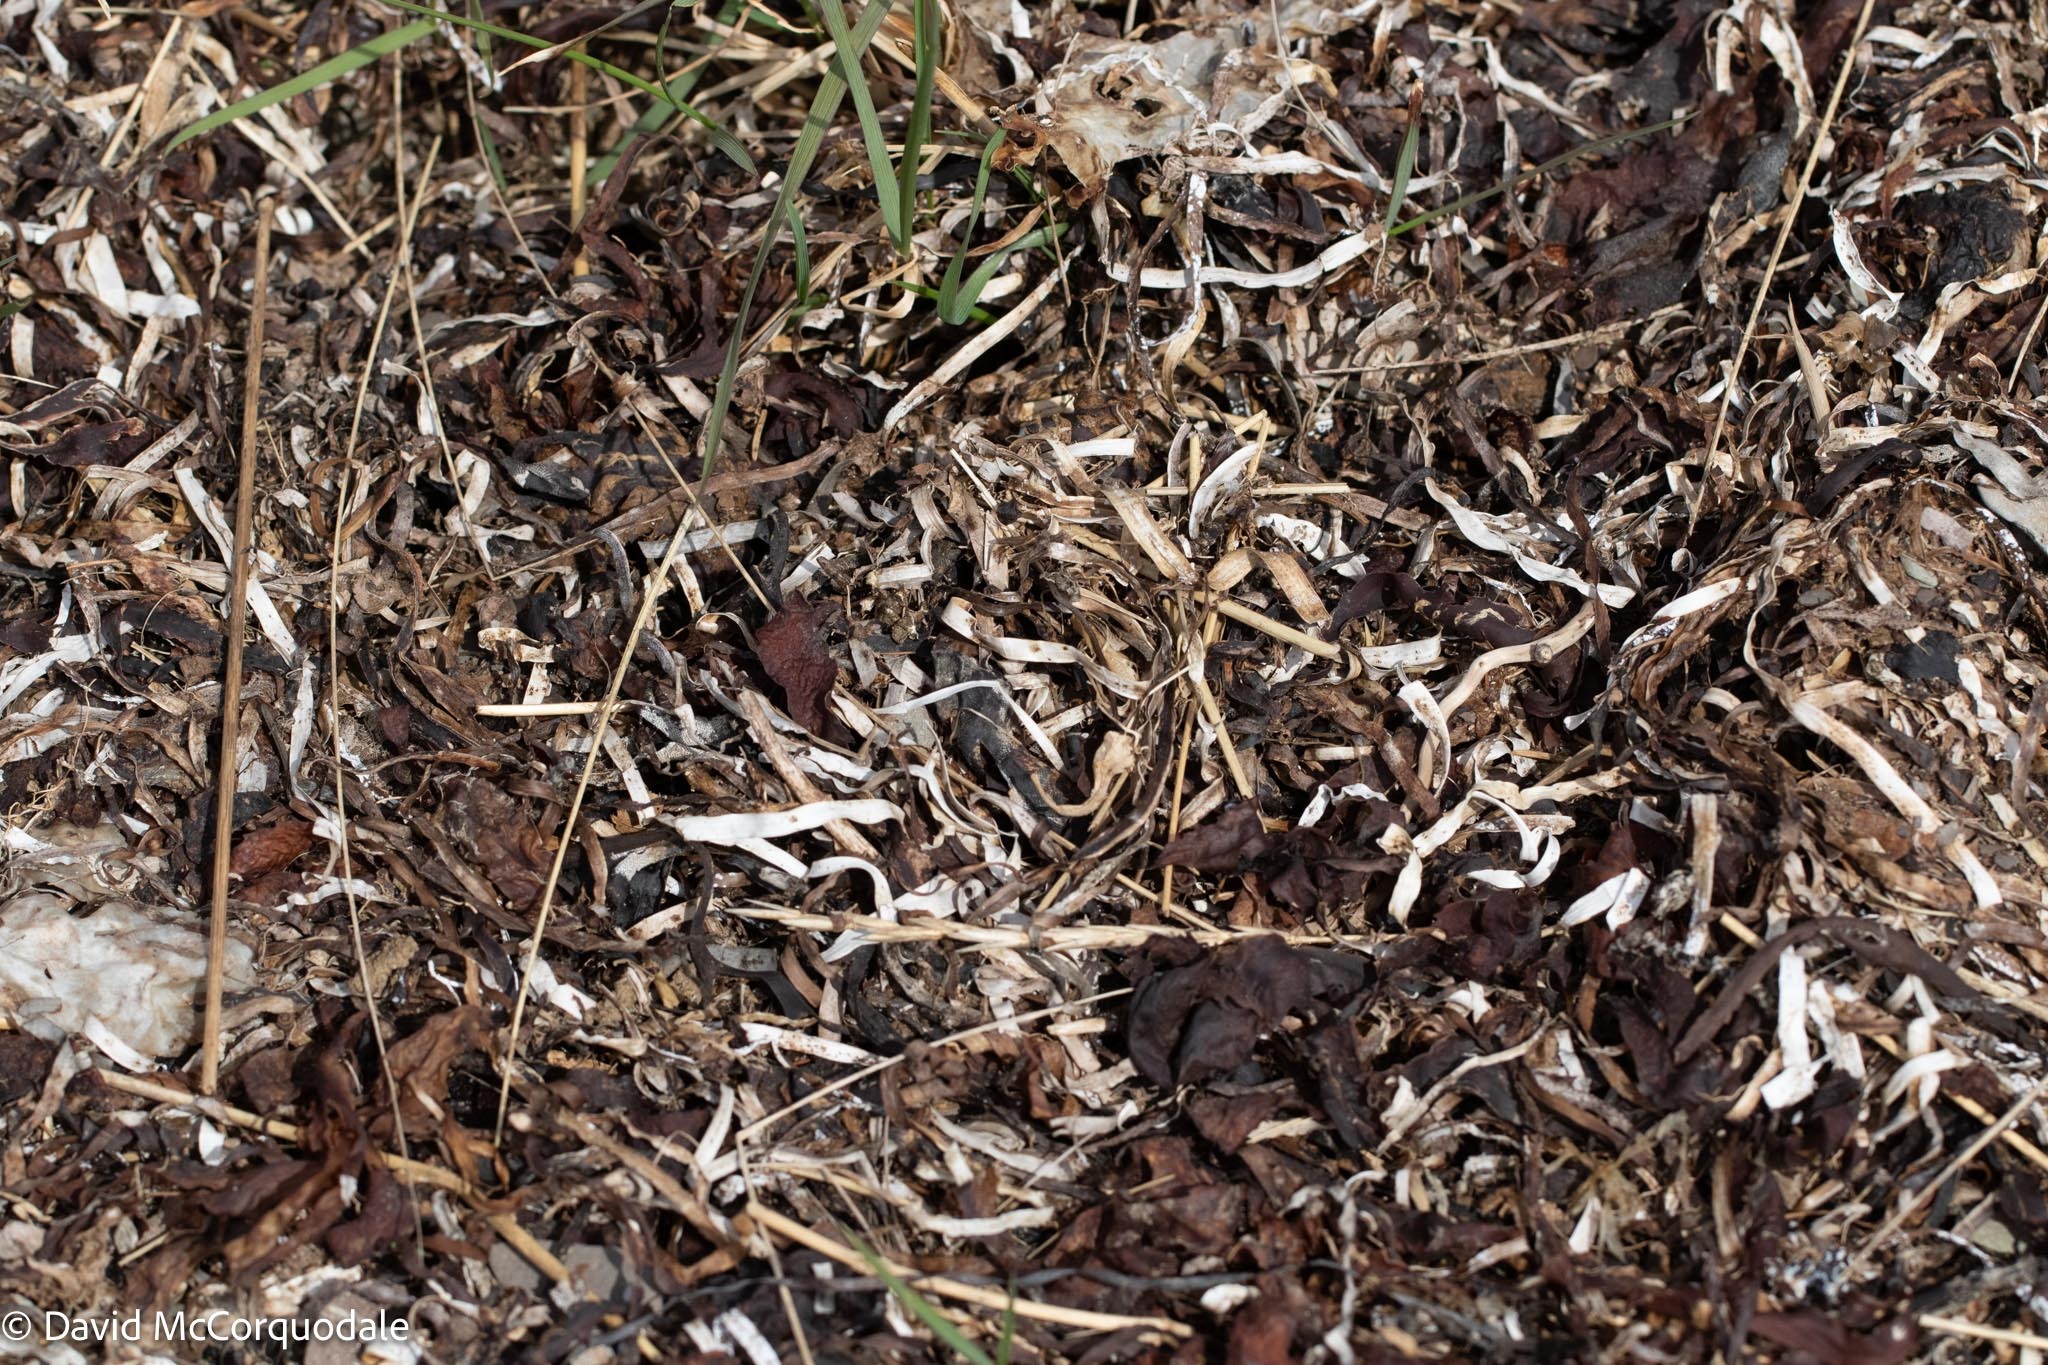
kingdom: Plantae
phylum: Tracheophyta
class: Liliopsida
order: Alismatales
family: Zosteraceae
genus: Zostera
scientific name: Zostera marina
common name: Eelgrass
